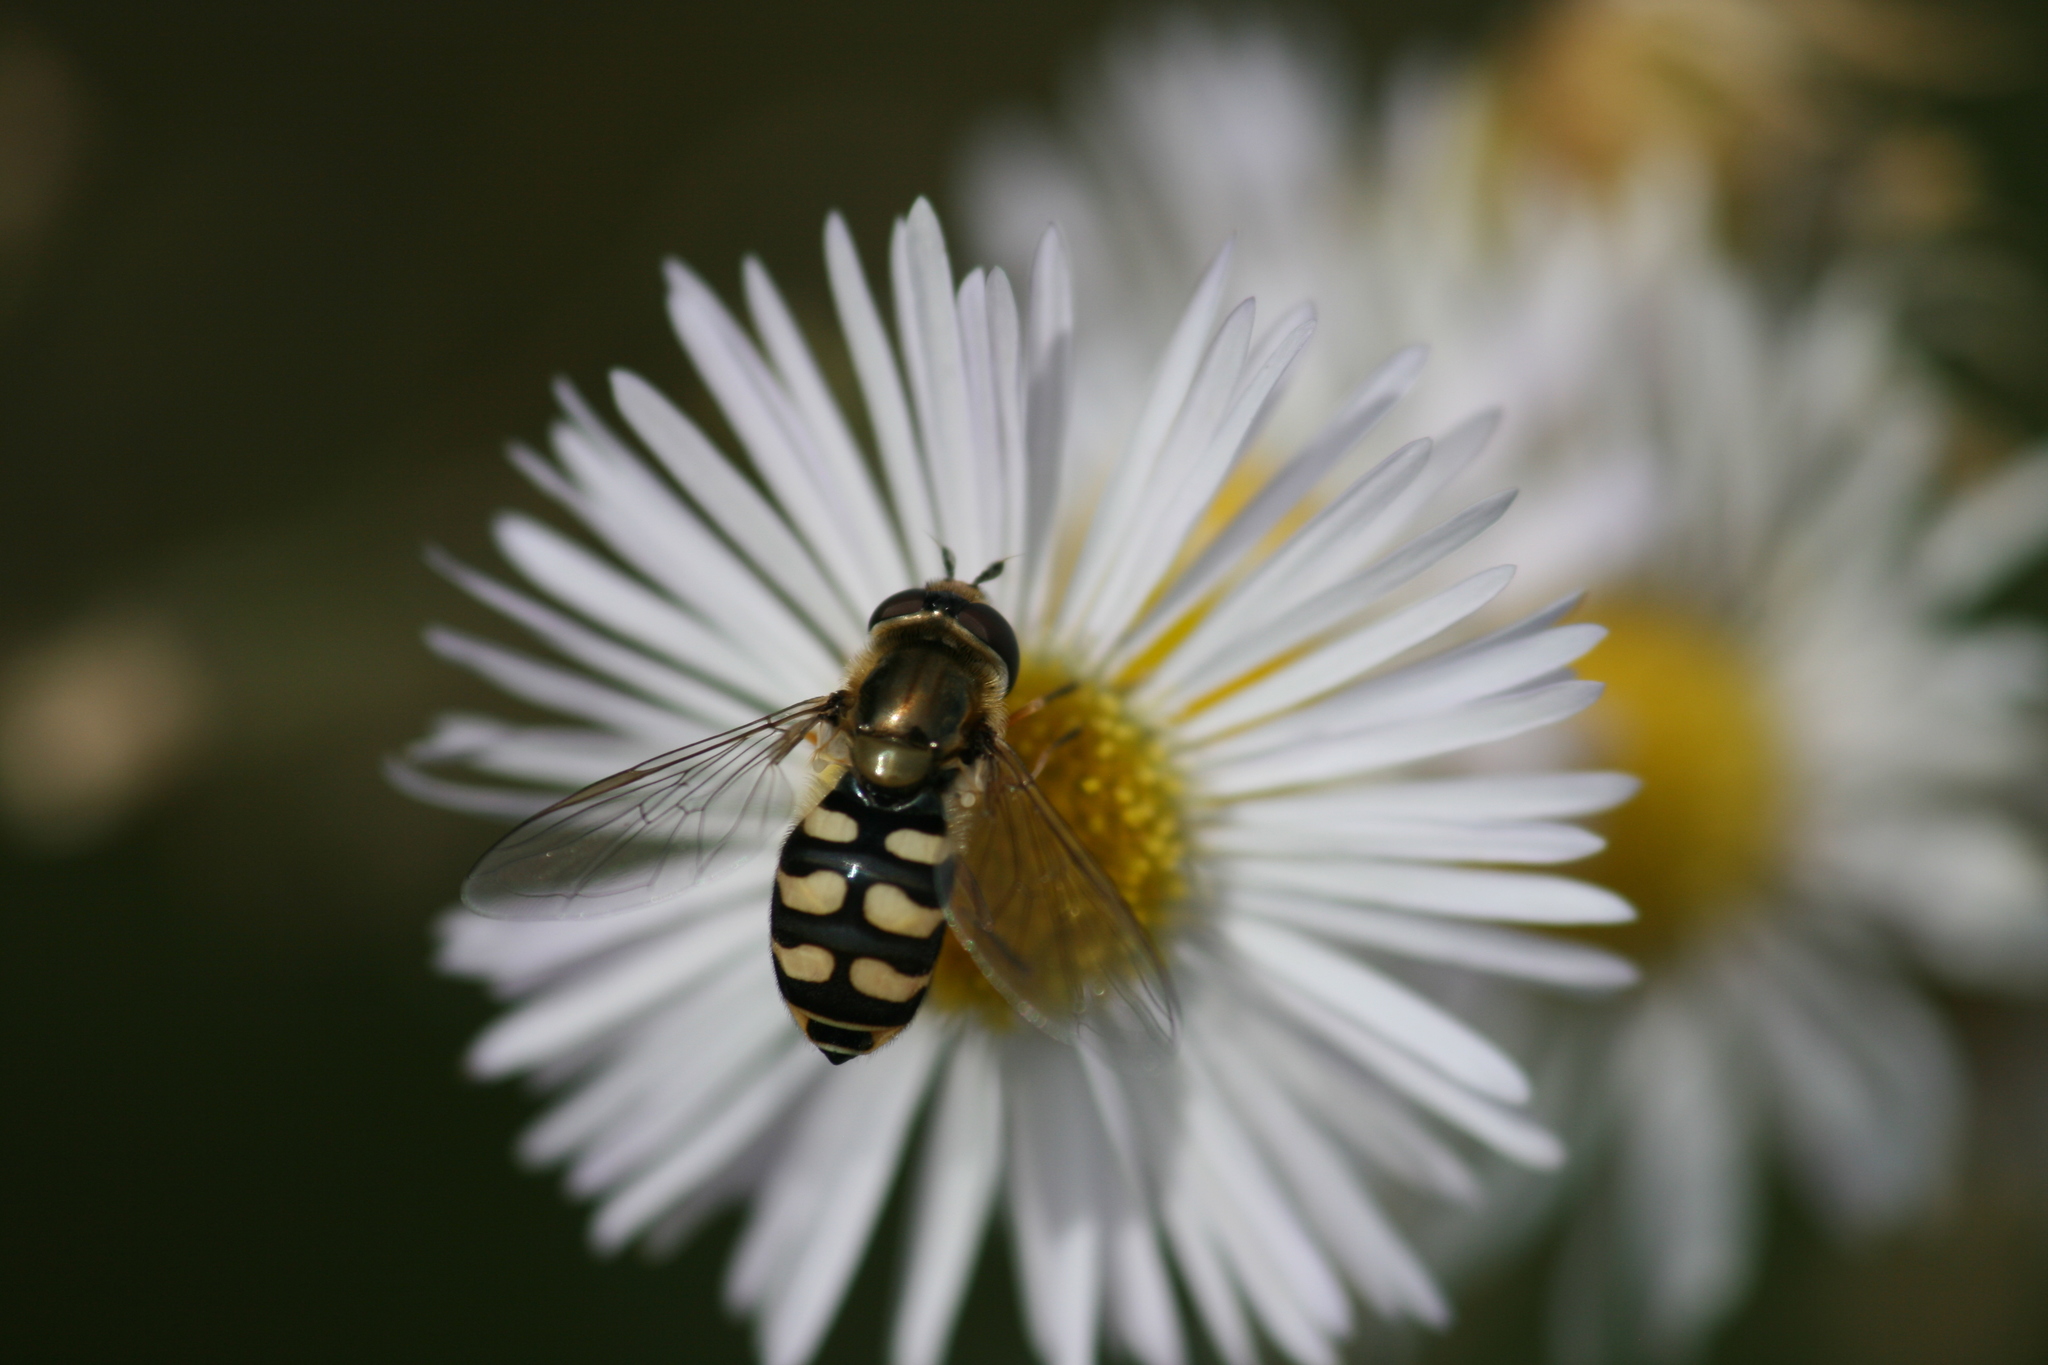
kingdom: Animalia
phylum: Arthropoda
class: Insecta
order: Diptera
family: Syrphidae
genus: Eupeodes
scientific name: Eupeodes corollae
